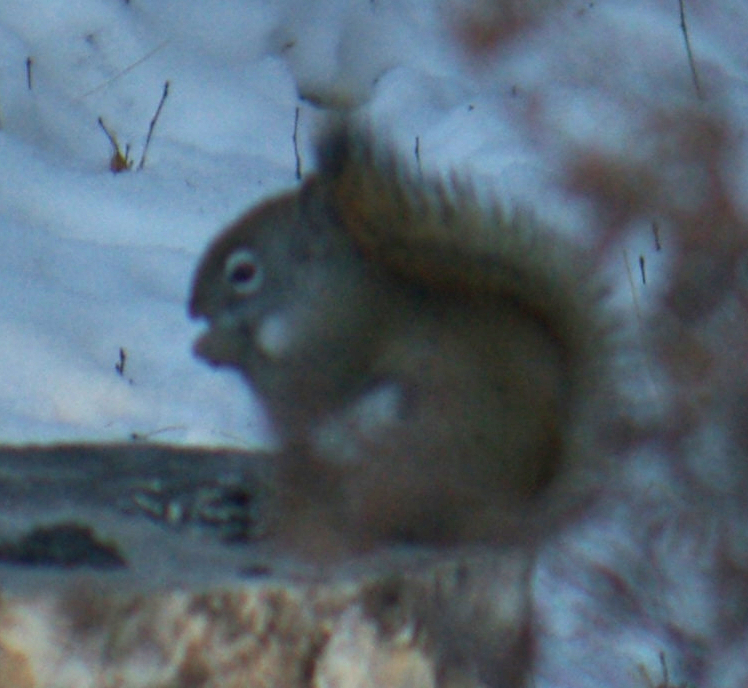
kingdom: Animalia
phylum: Chordata
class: Mammalia
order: Rodentia
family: Sciuridae
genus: Tamiasciurus
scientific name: Tamiasciurus hudsonicus
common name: Red squirrel
